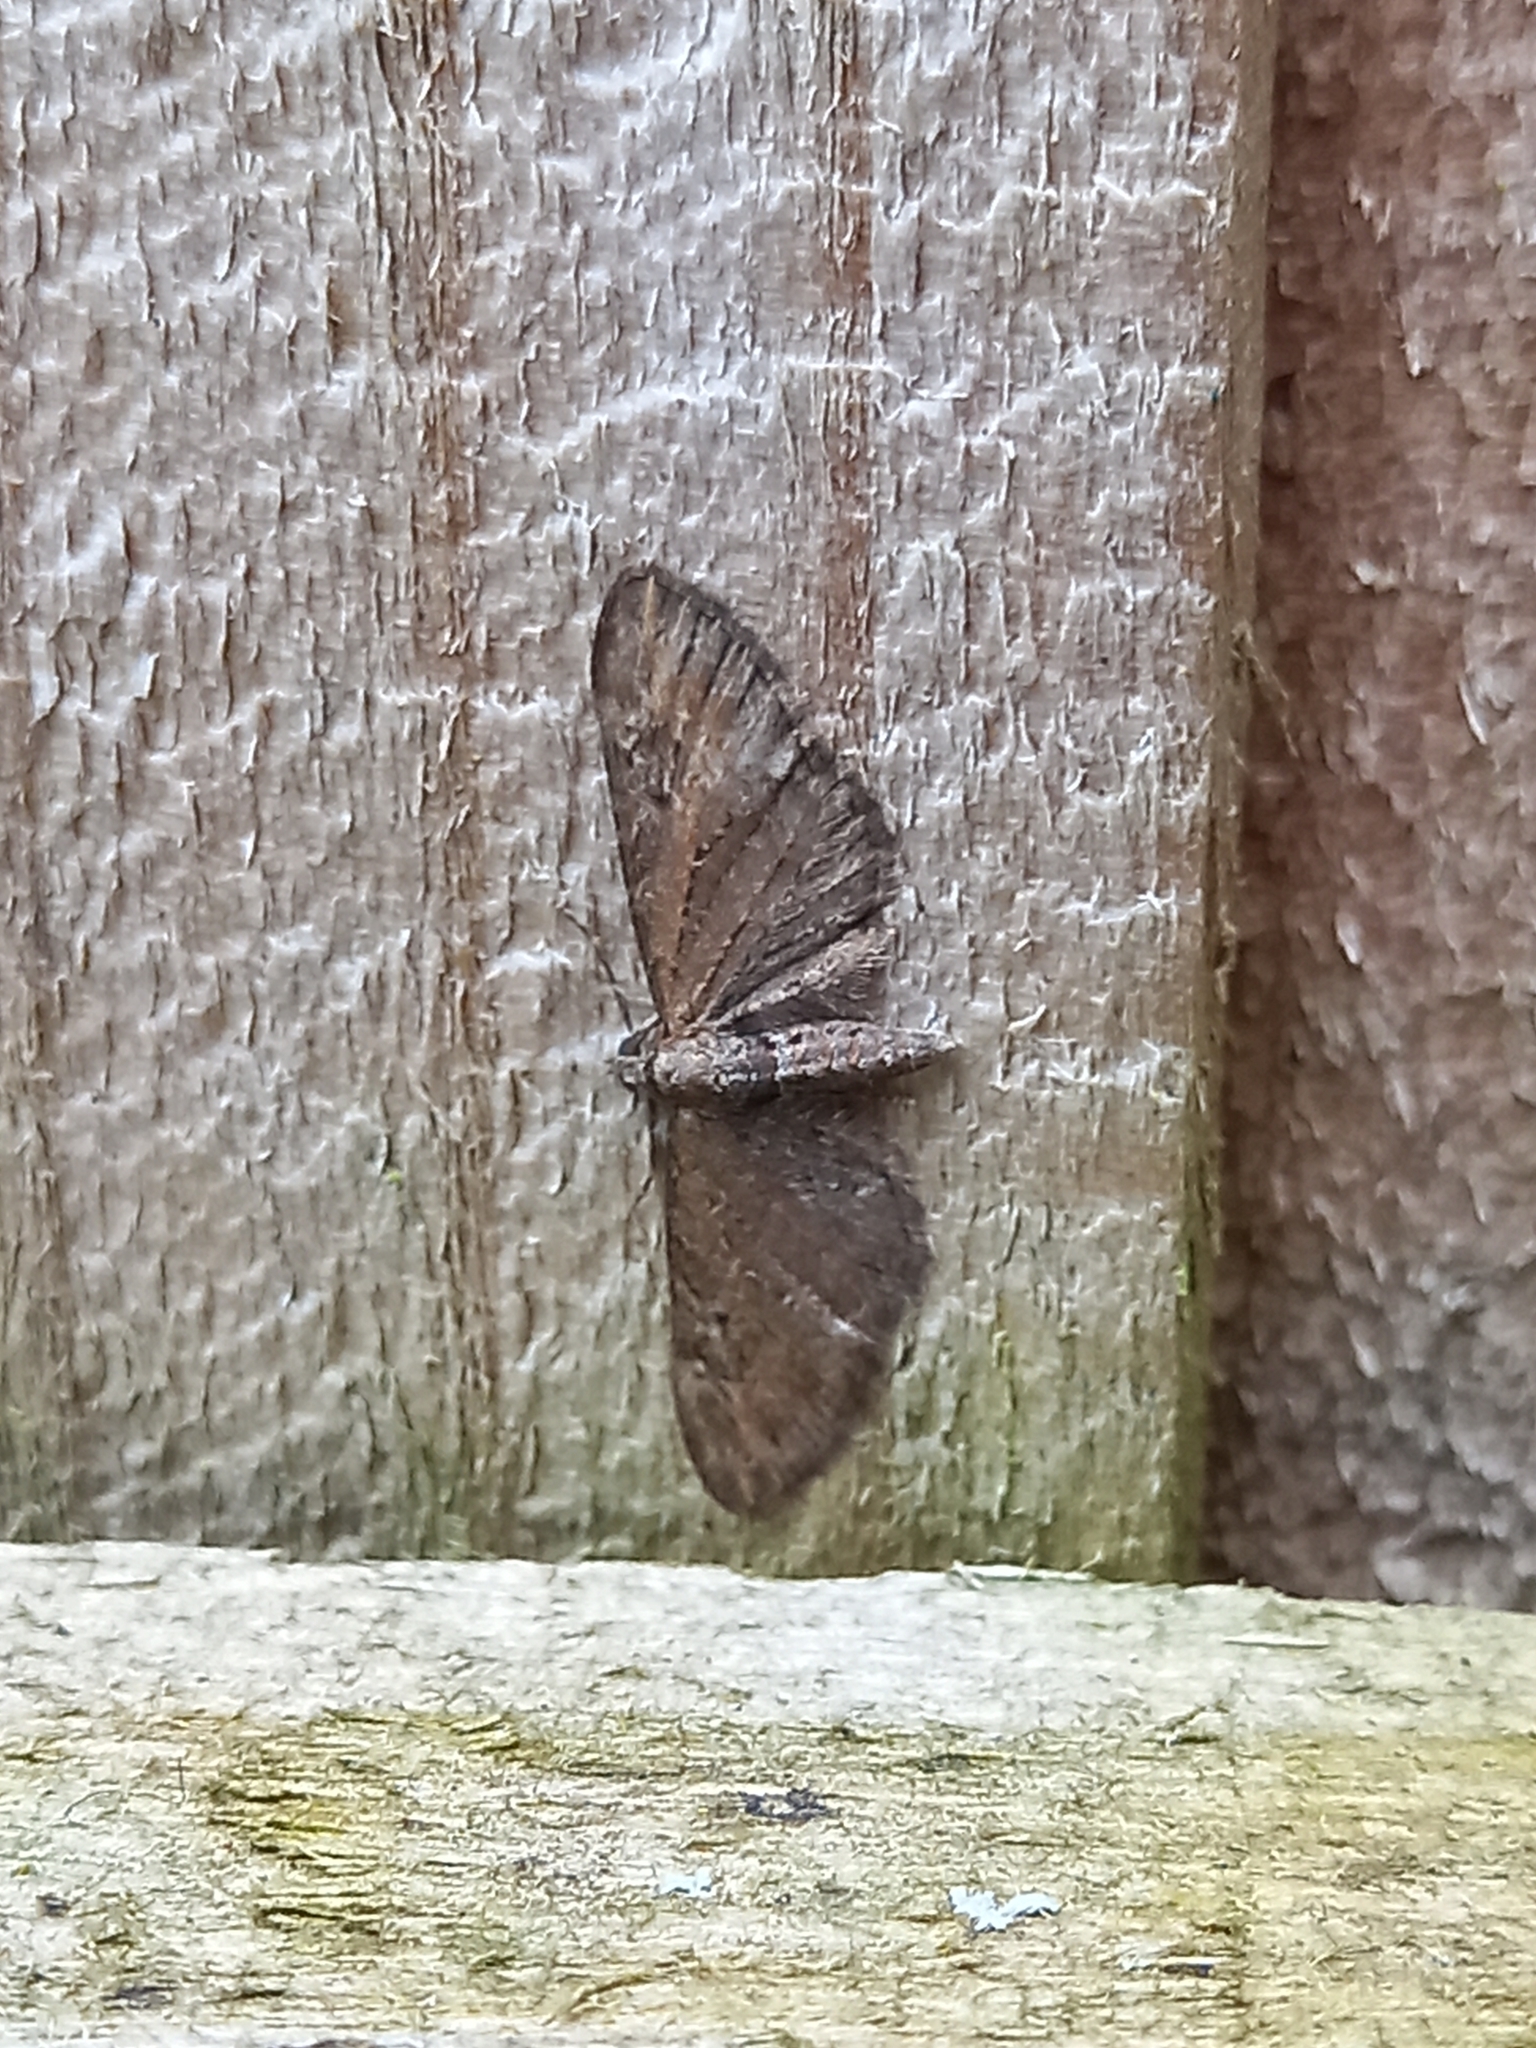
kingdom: Animalia
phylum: Arthropoda
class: Insecta
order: Lepidoptera
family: Geometridae
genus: Eupithecia
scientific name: Eupithecia vulgata
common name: Common pug
